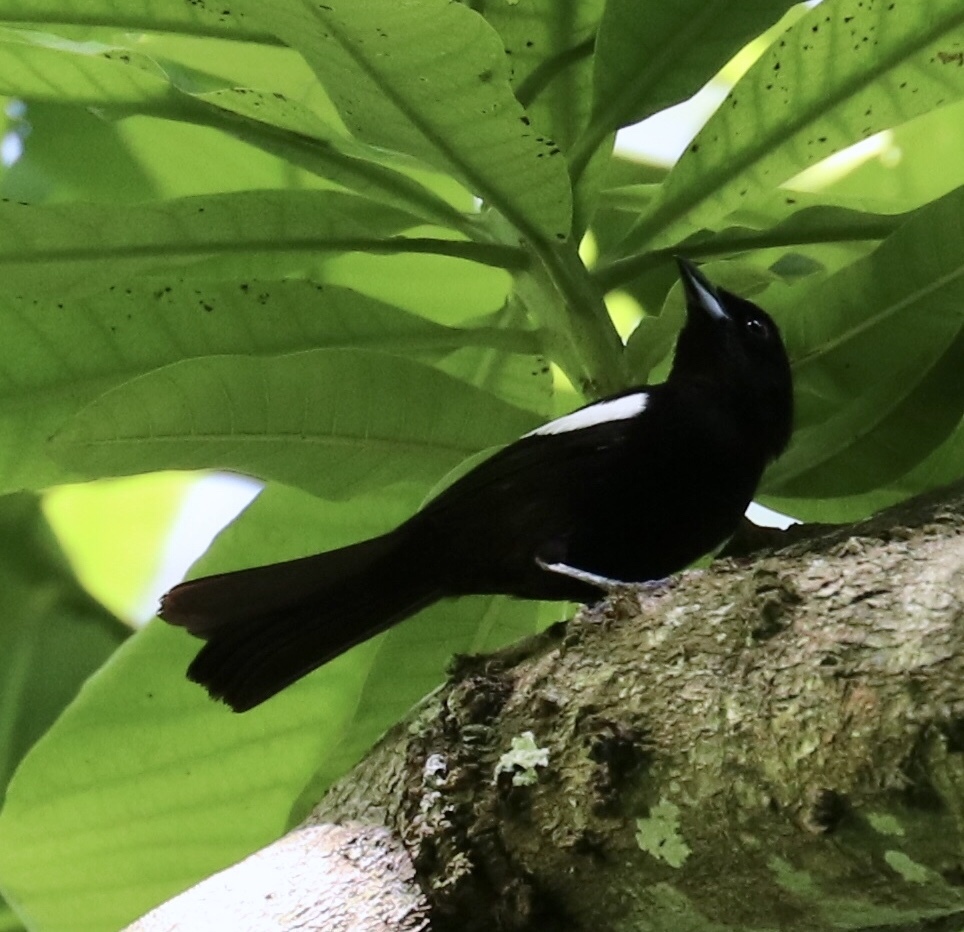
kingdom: Animalia
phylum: Chordata
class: Aves
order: Passeriformes
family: Thraupidae
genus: Loriotus
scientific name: Loriotus luctuosus
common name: White-shouldered tanager
